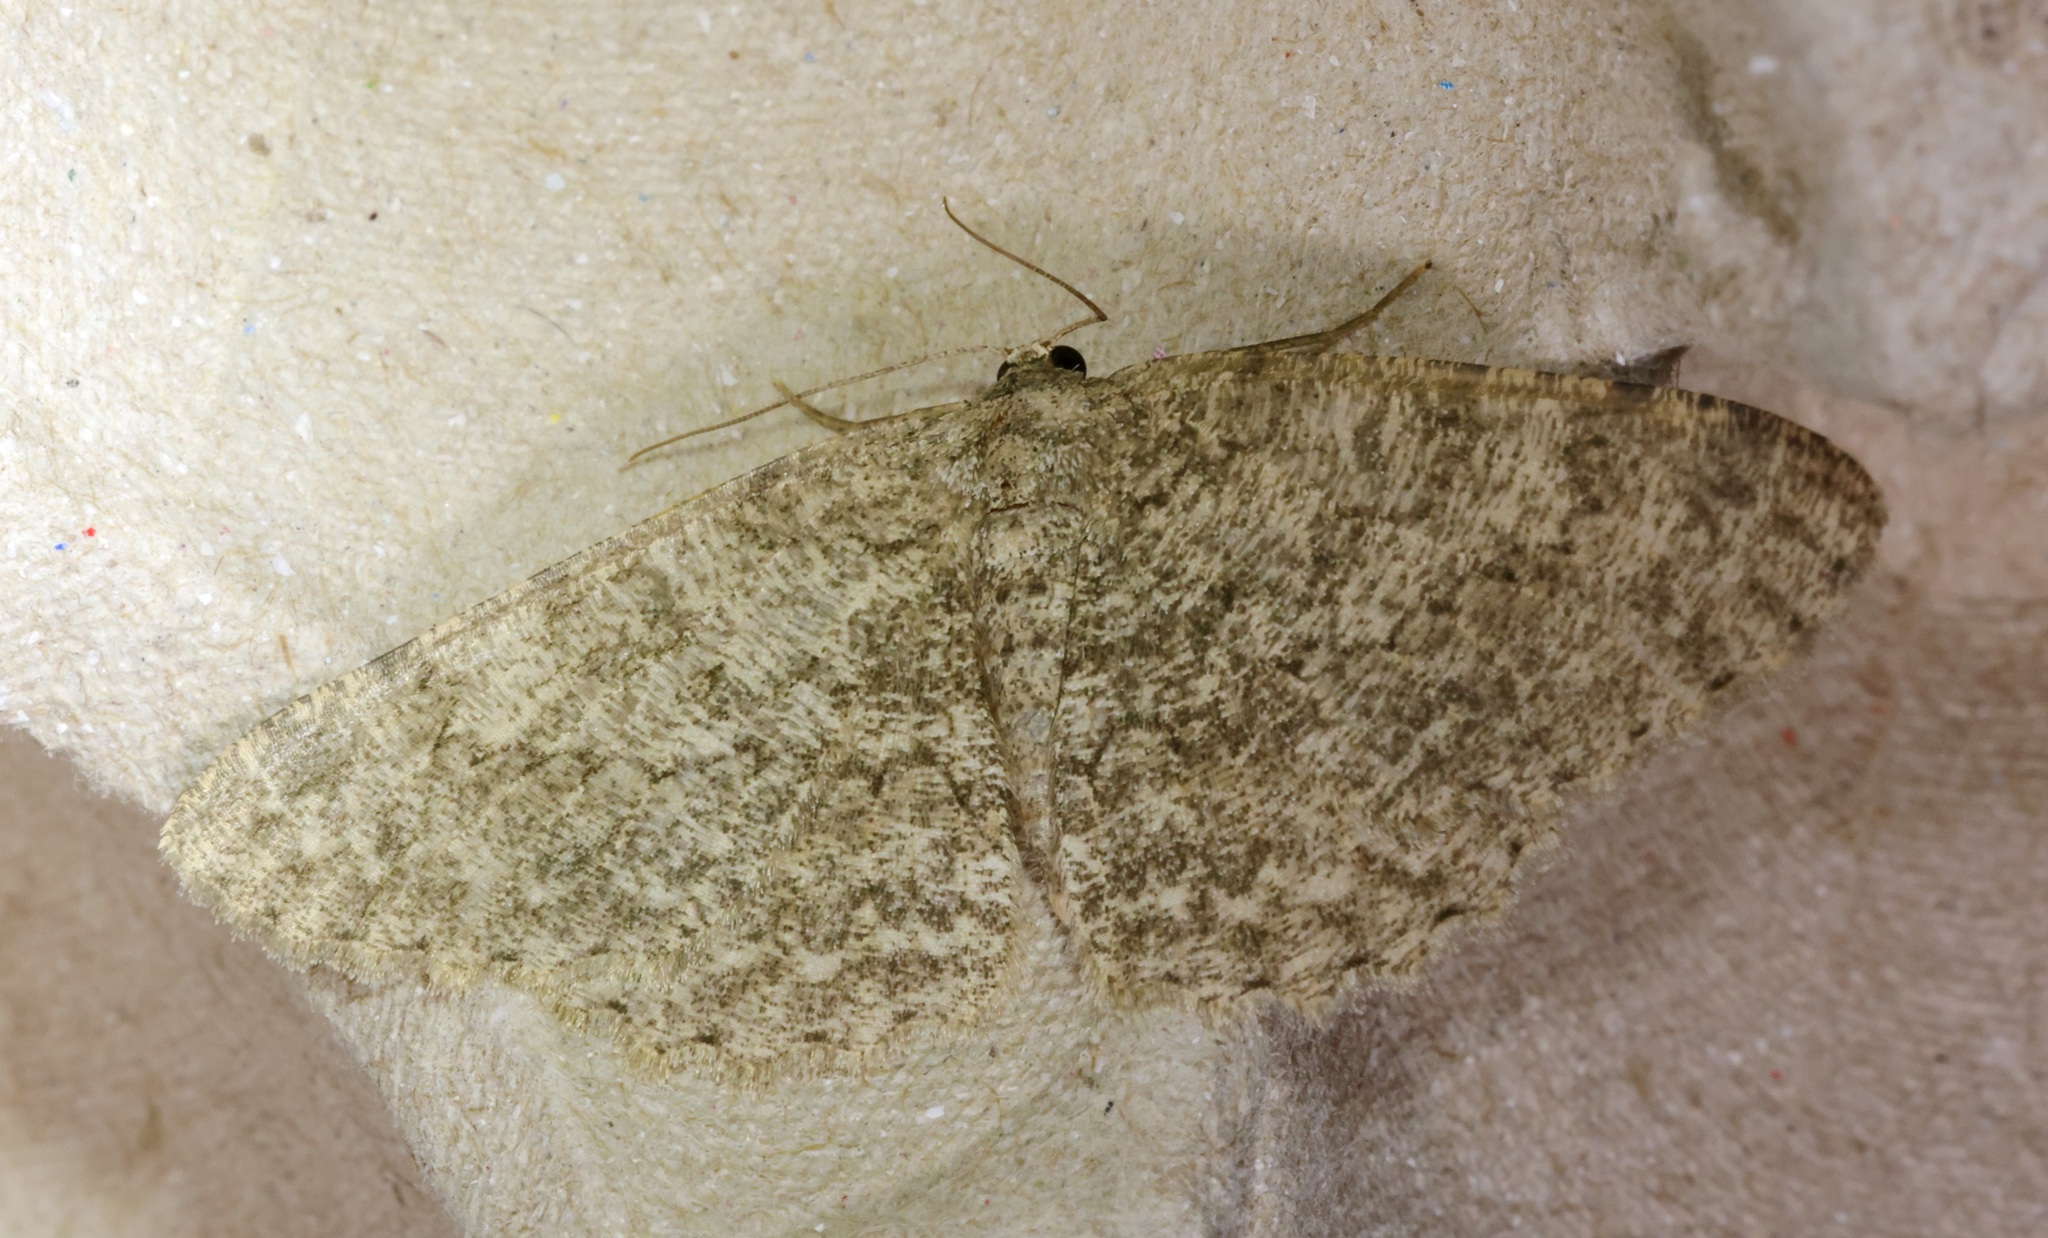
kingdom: Animalia
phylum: Arthropoda
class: Insecta
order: Lepidoptera
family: Geometridae
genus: Hypomecis
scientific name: Hypomecis infixaria
